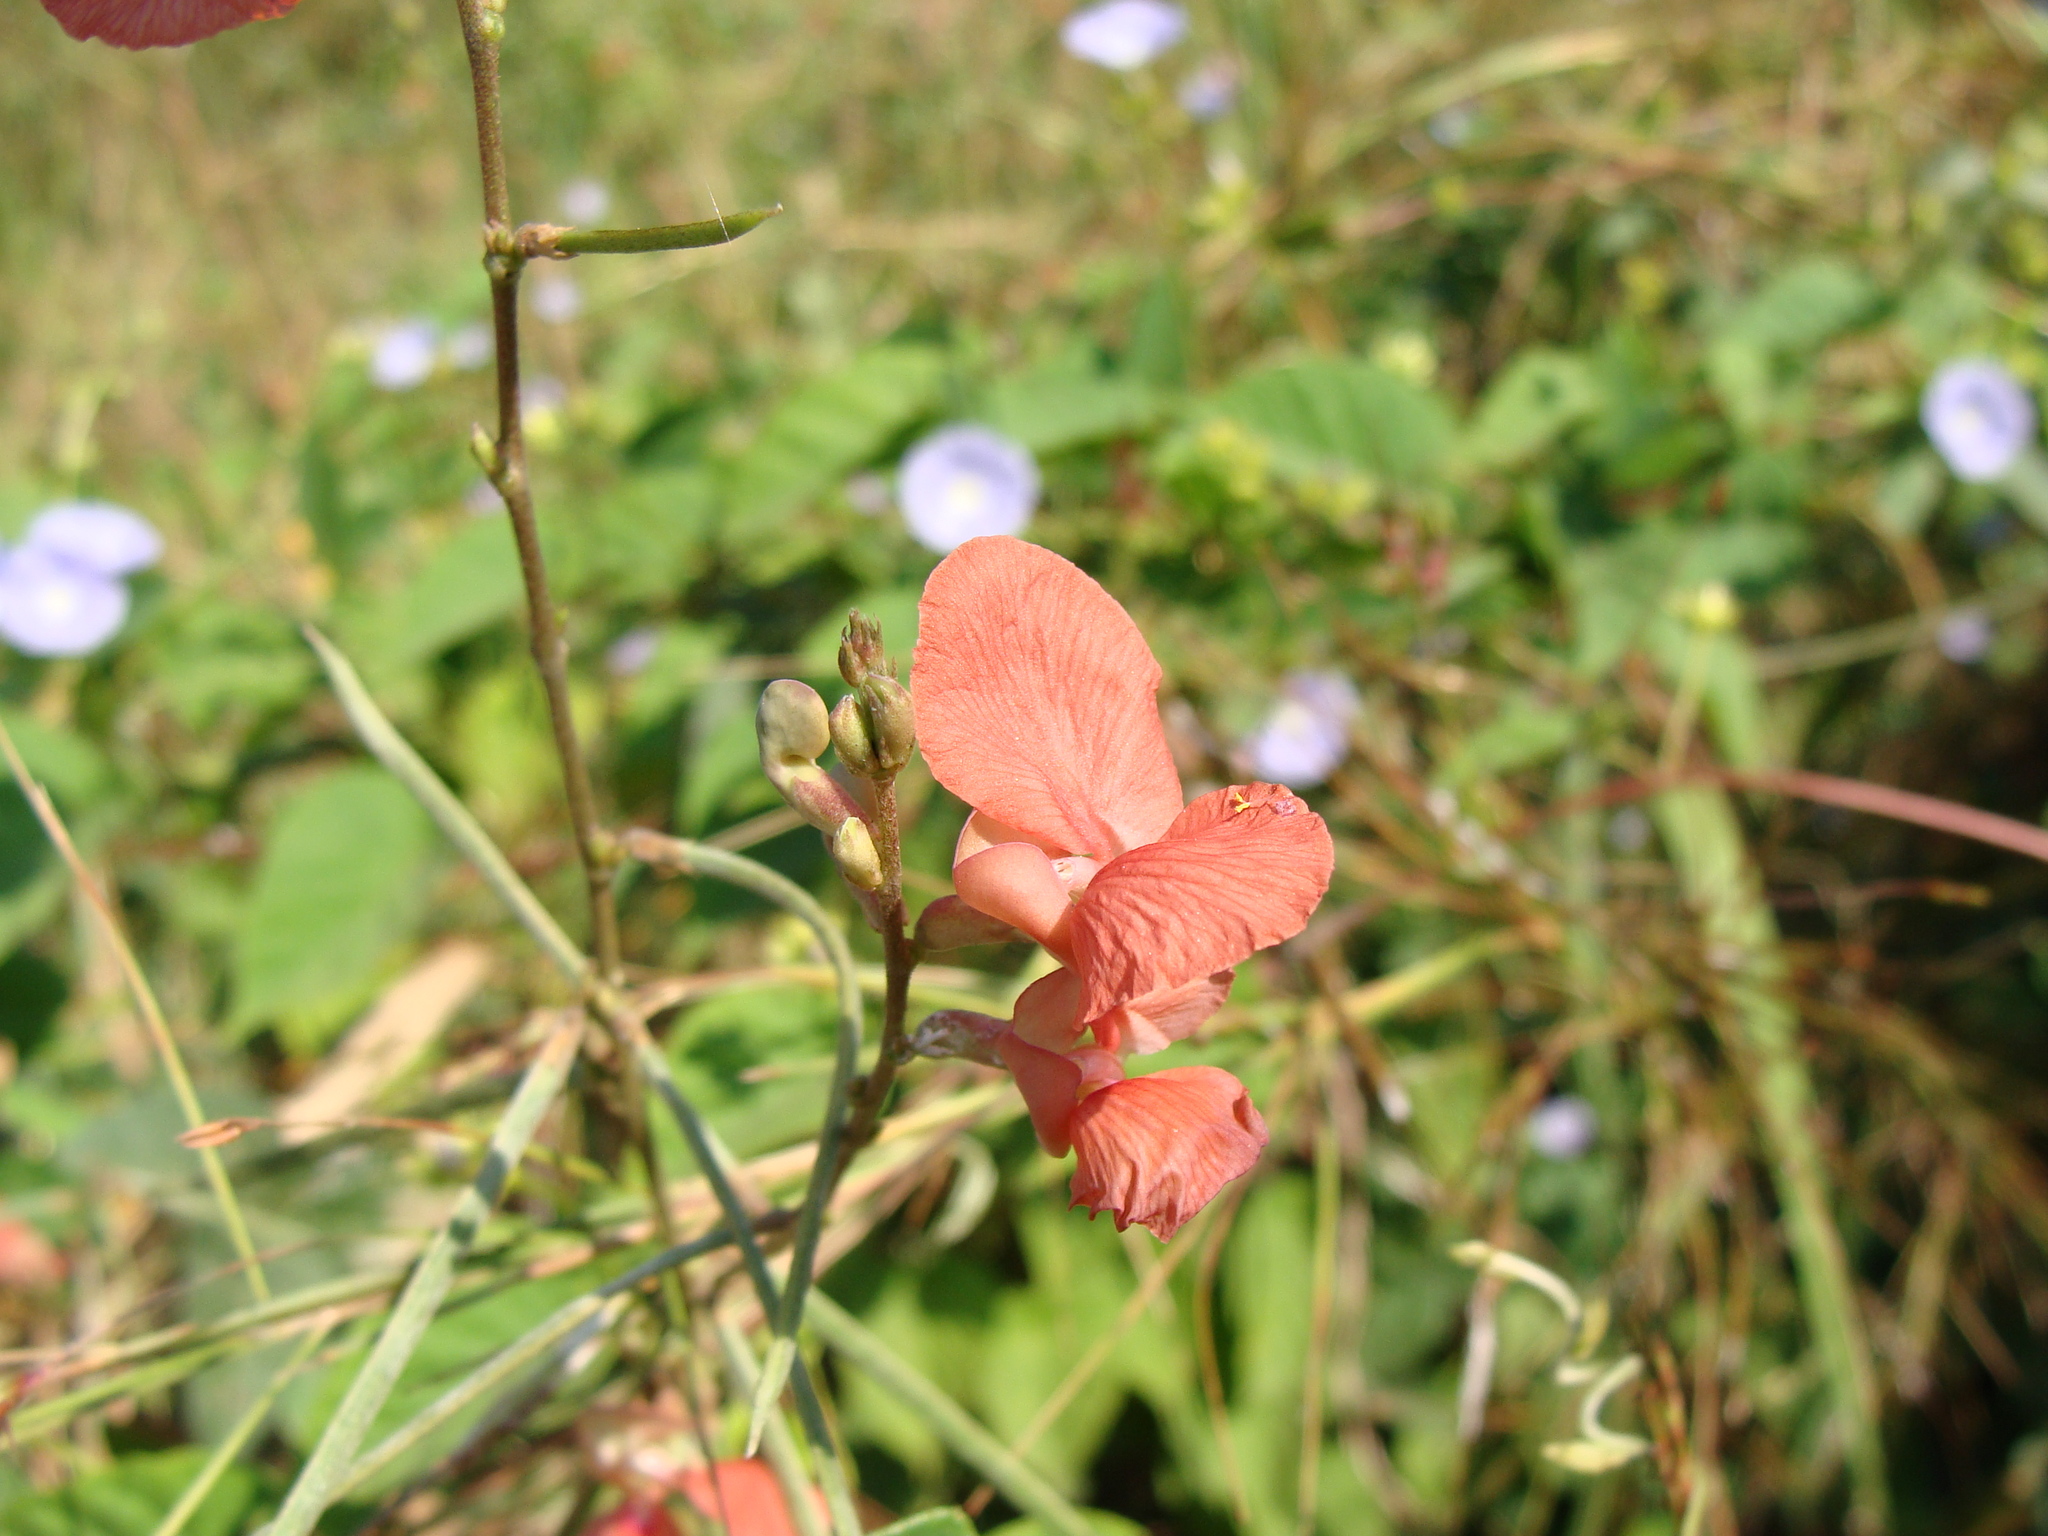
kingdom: Plantae
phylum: Tracheophyta
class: Magnoliopsida
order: Fabales
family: Fabaceae
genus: Macroptilium
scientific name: Macroptilium gracile
